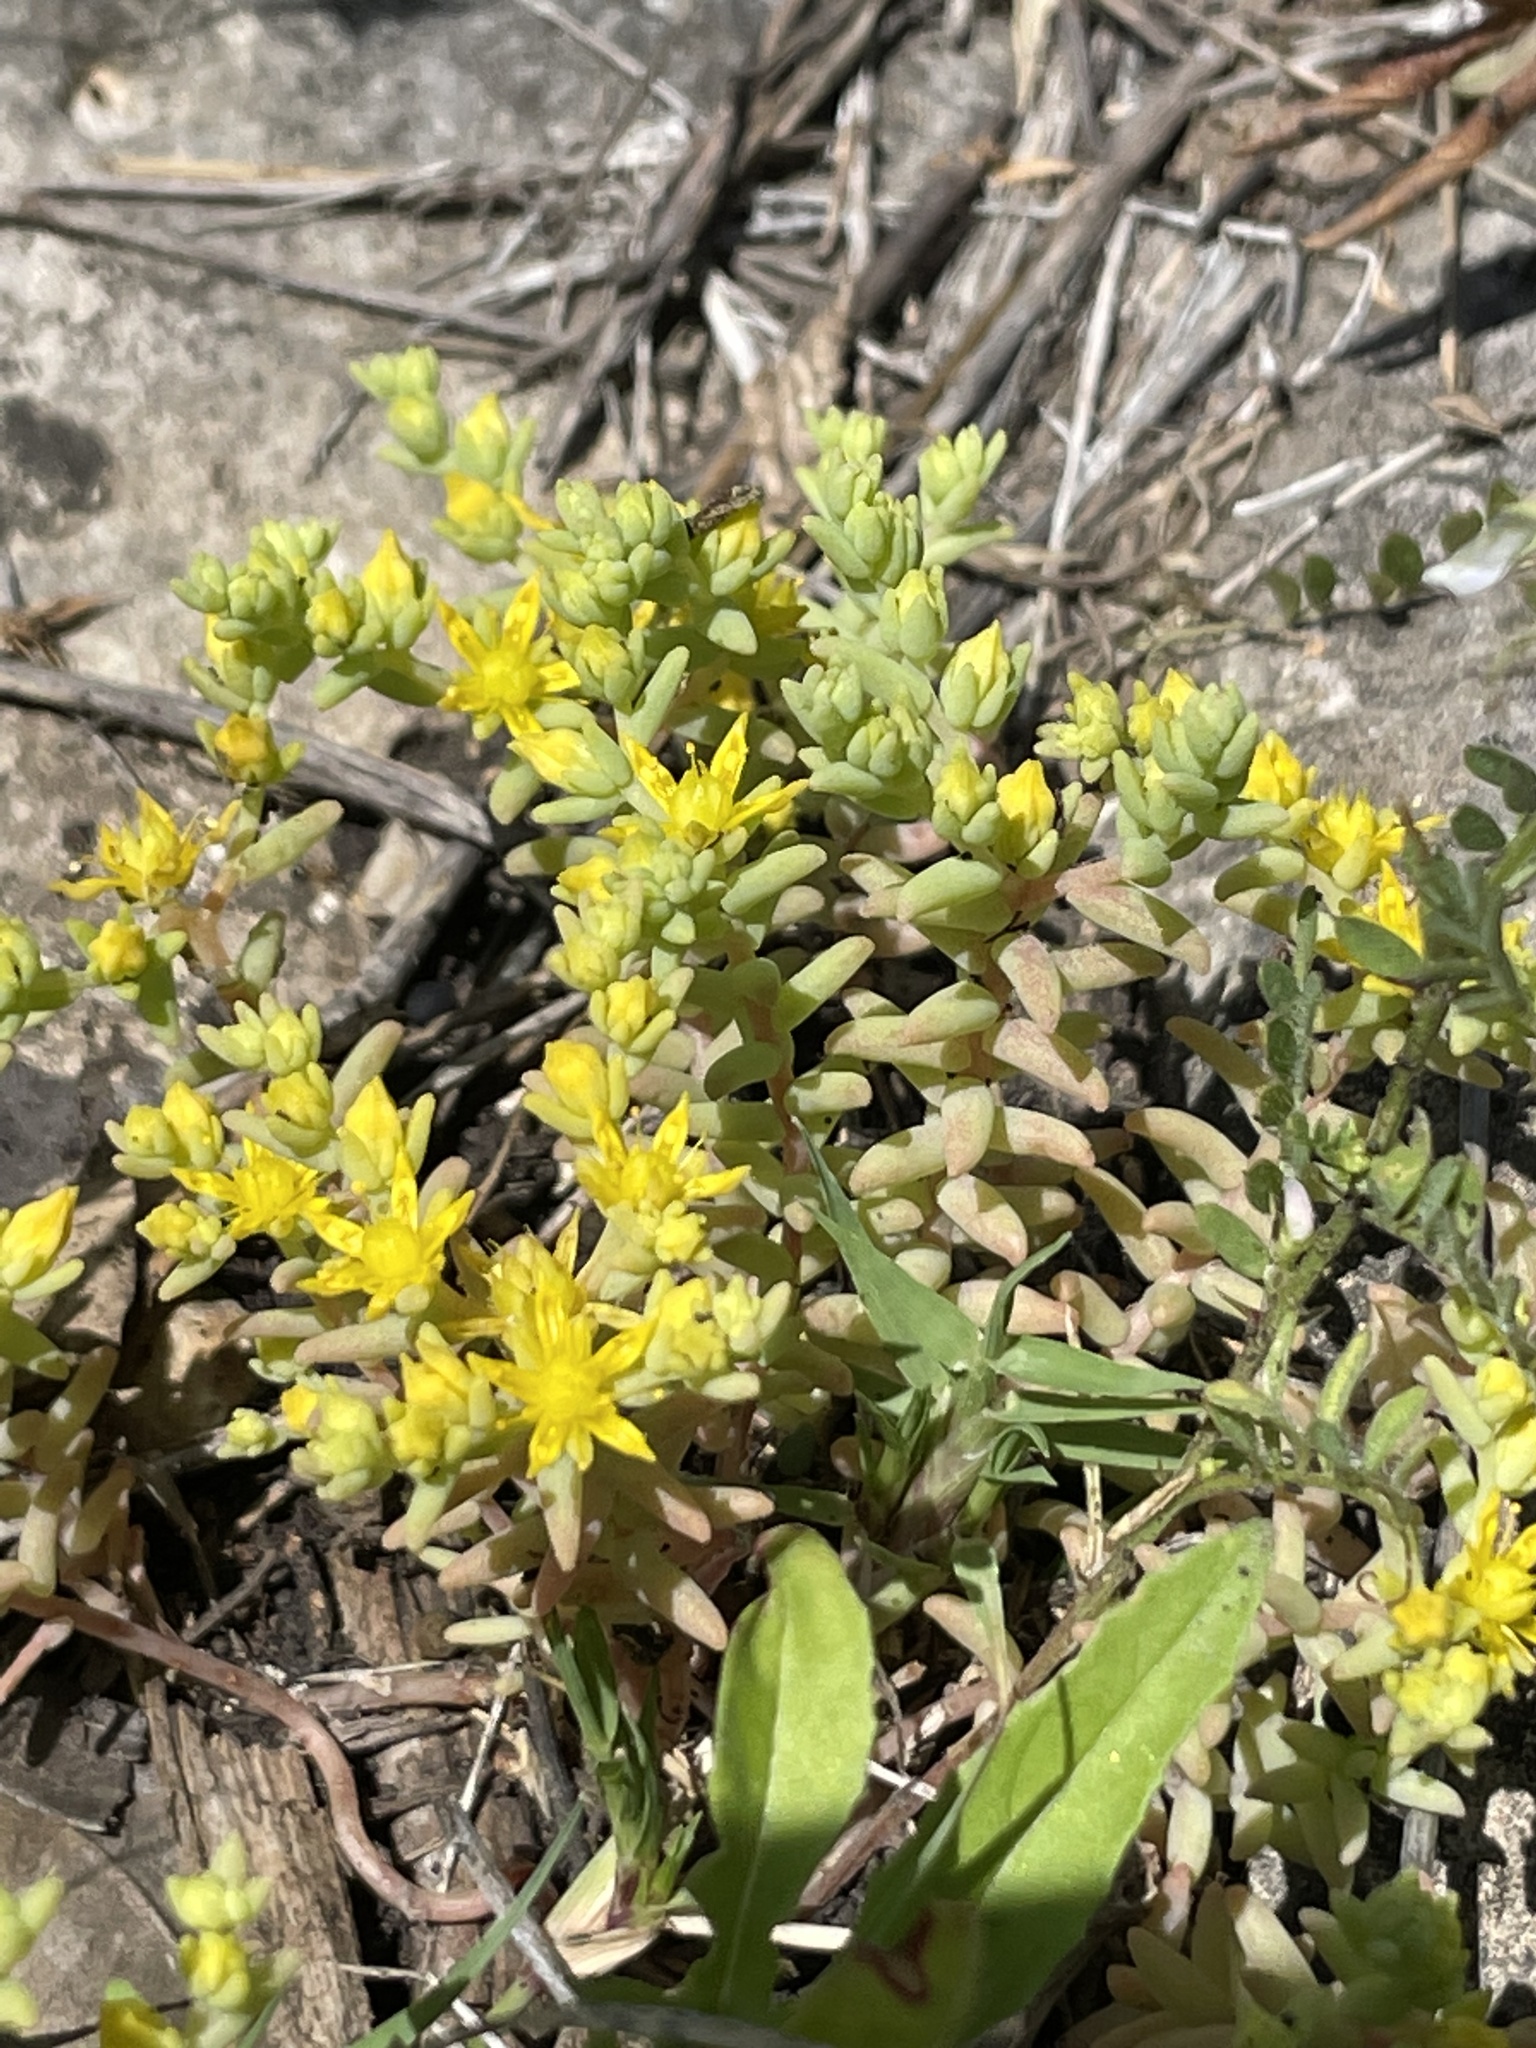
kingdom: Plantae
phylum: Tracheophyta
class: Magnoliopsida
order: Saxifragales
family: Crassulaceae
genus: Sedum
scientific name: Sedum nuttallii
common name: Yellow stonecrop
